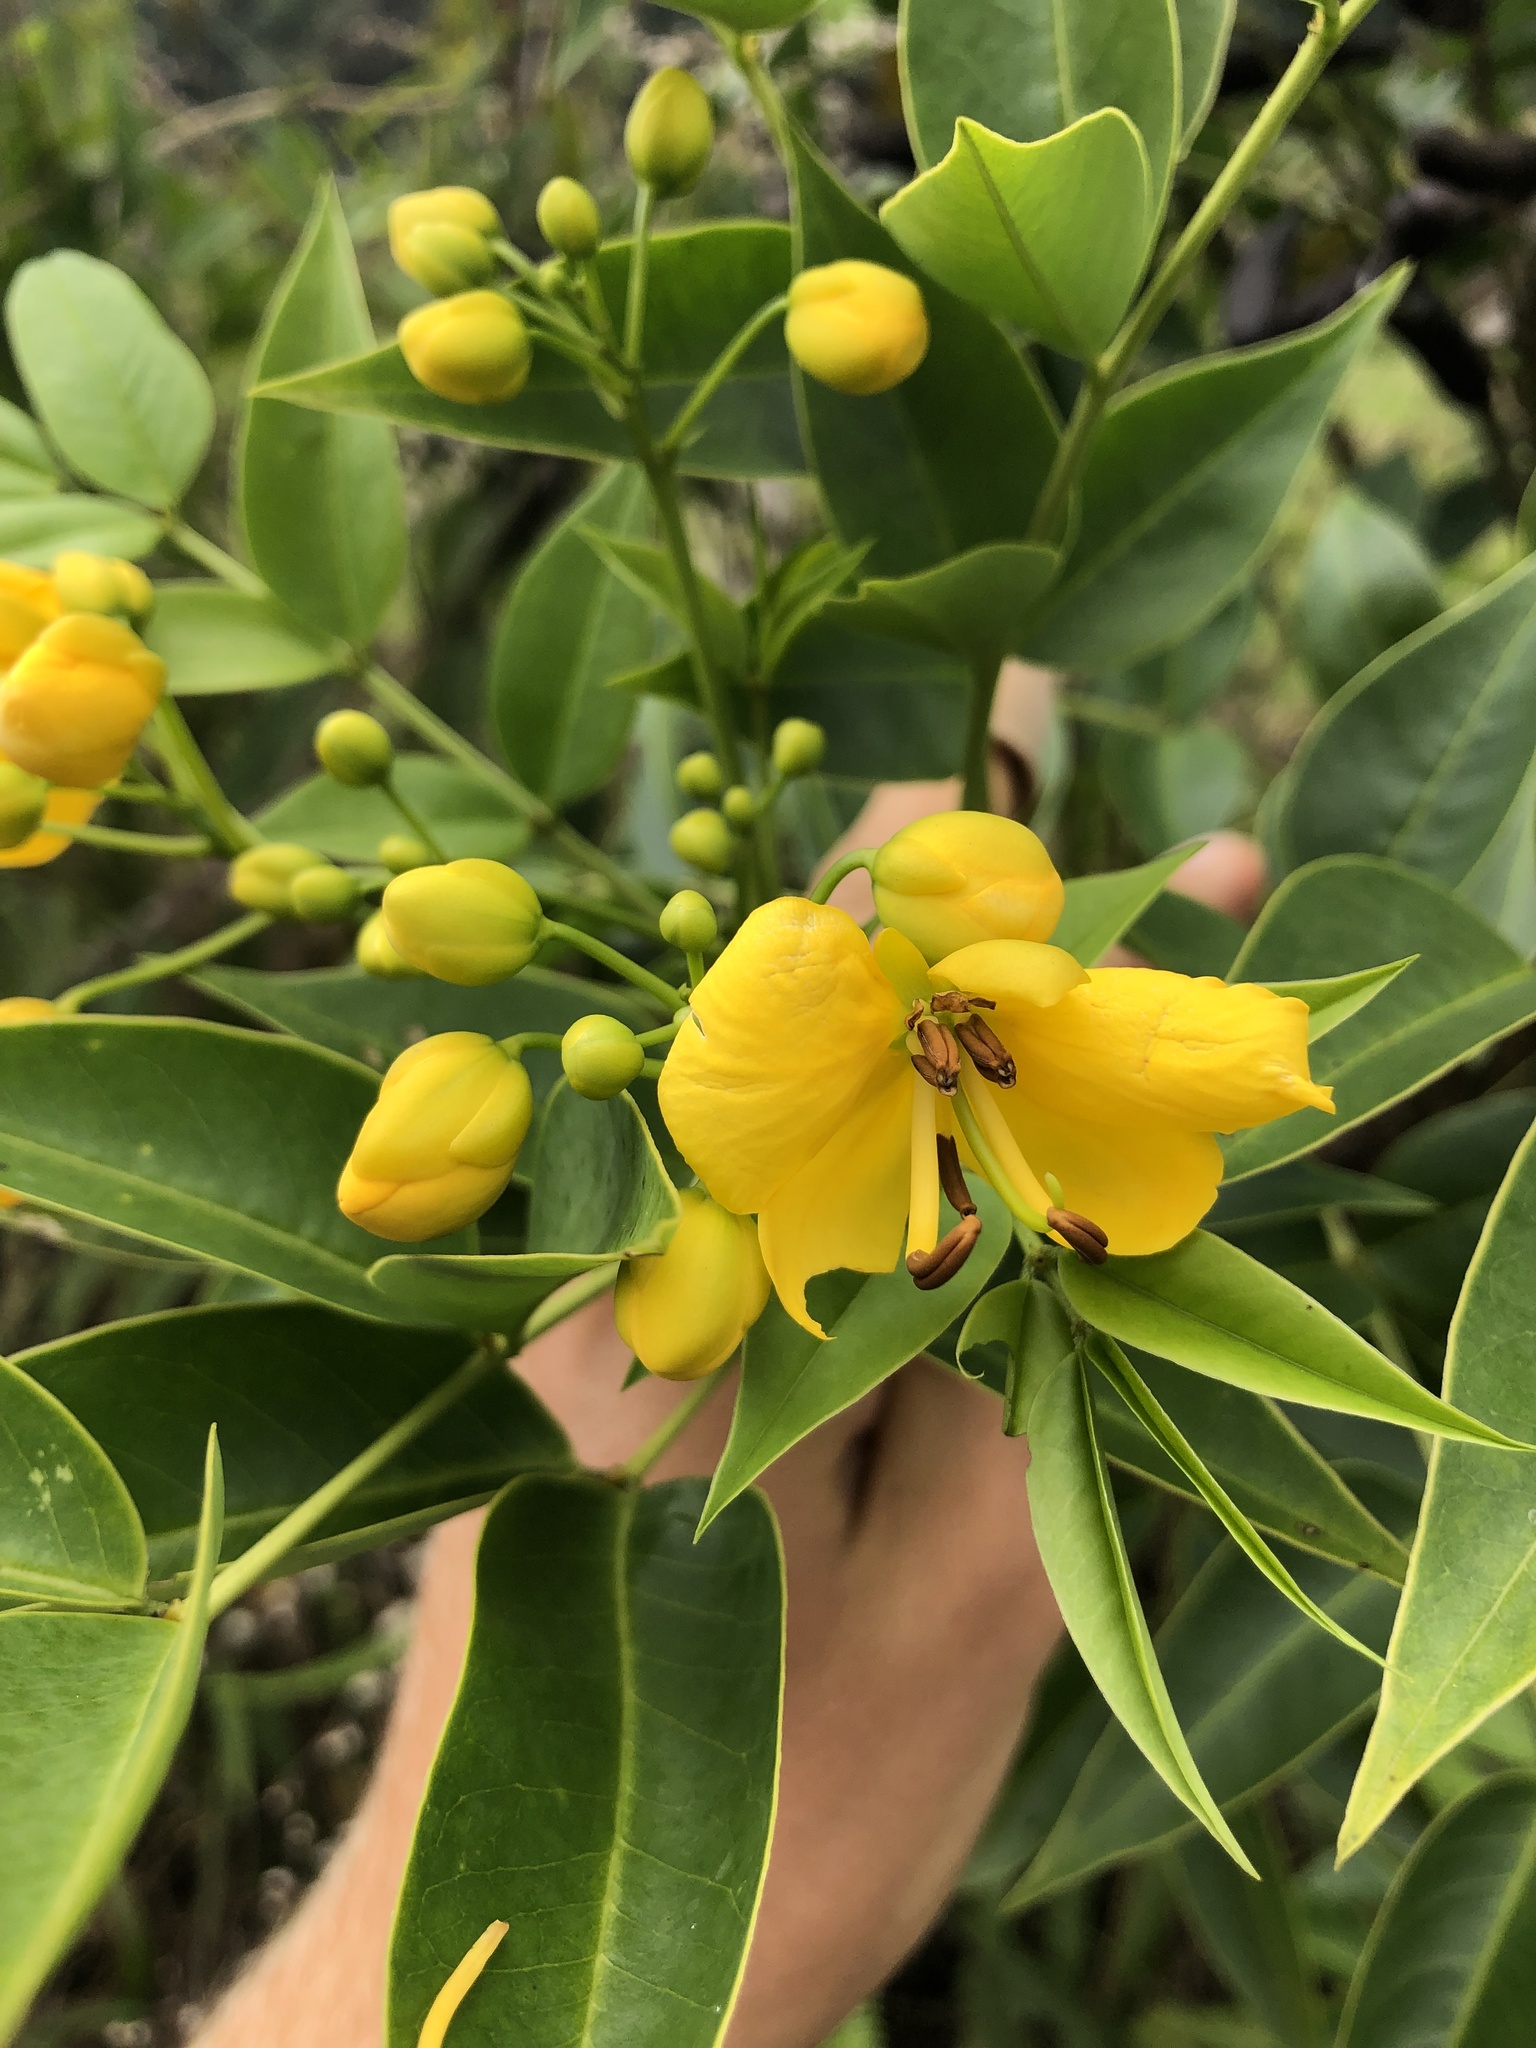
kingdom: Plantae
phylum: Tracheophyta
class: Magnoliopsida
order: Fabales
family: Fabaceae
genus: Senna
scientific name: Senna septemtrionalis
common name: Arsenic bush
